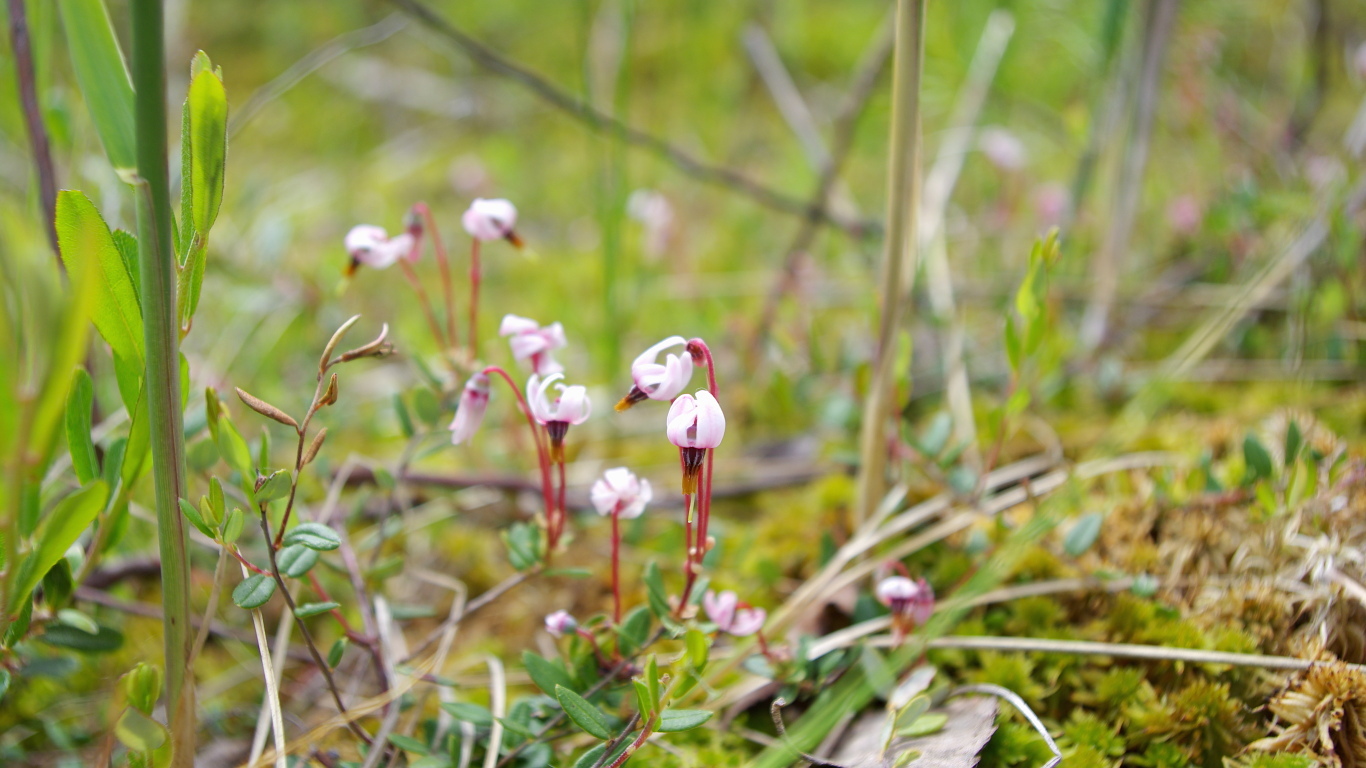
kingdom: Plantae
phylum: Tracheophyta
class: Magnoliopsida
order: Ericales
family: Ericaceae
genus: Vaccinium
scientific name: Vaccinium oxycoccos
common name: Cranberry
